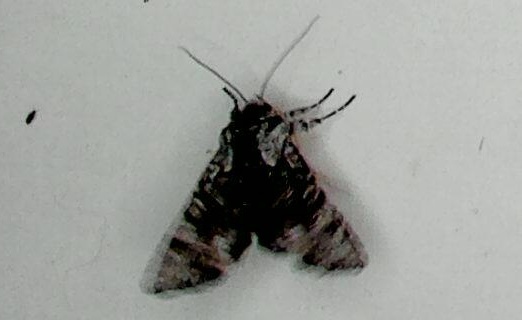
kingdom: Animalia
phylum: Arthropoda
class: Insecta
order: Lepidoptera
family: Noctuidae
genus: Neumichtis
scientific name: Neumichtis expulsa
